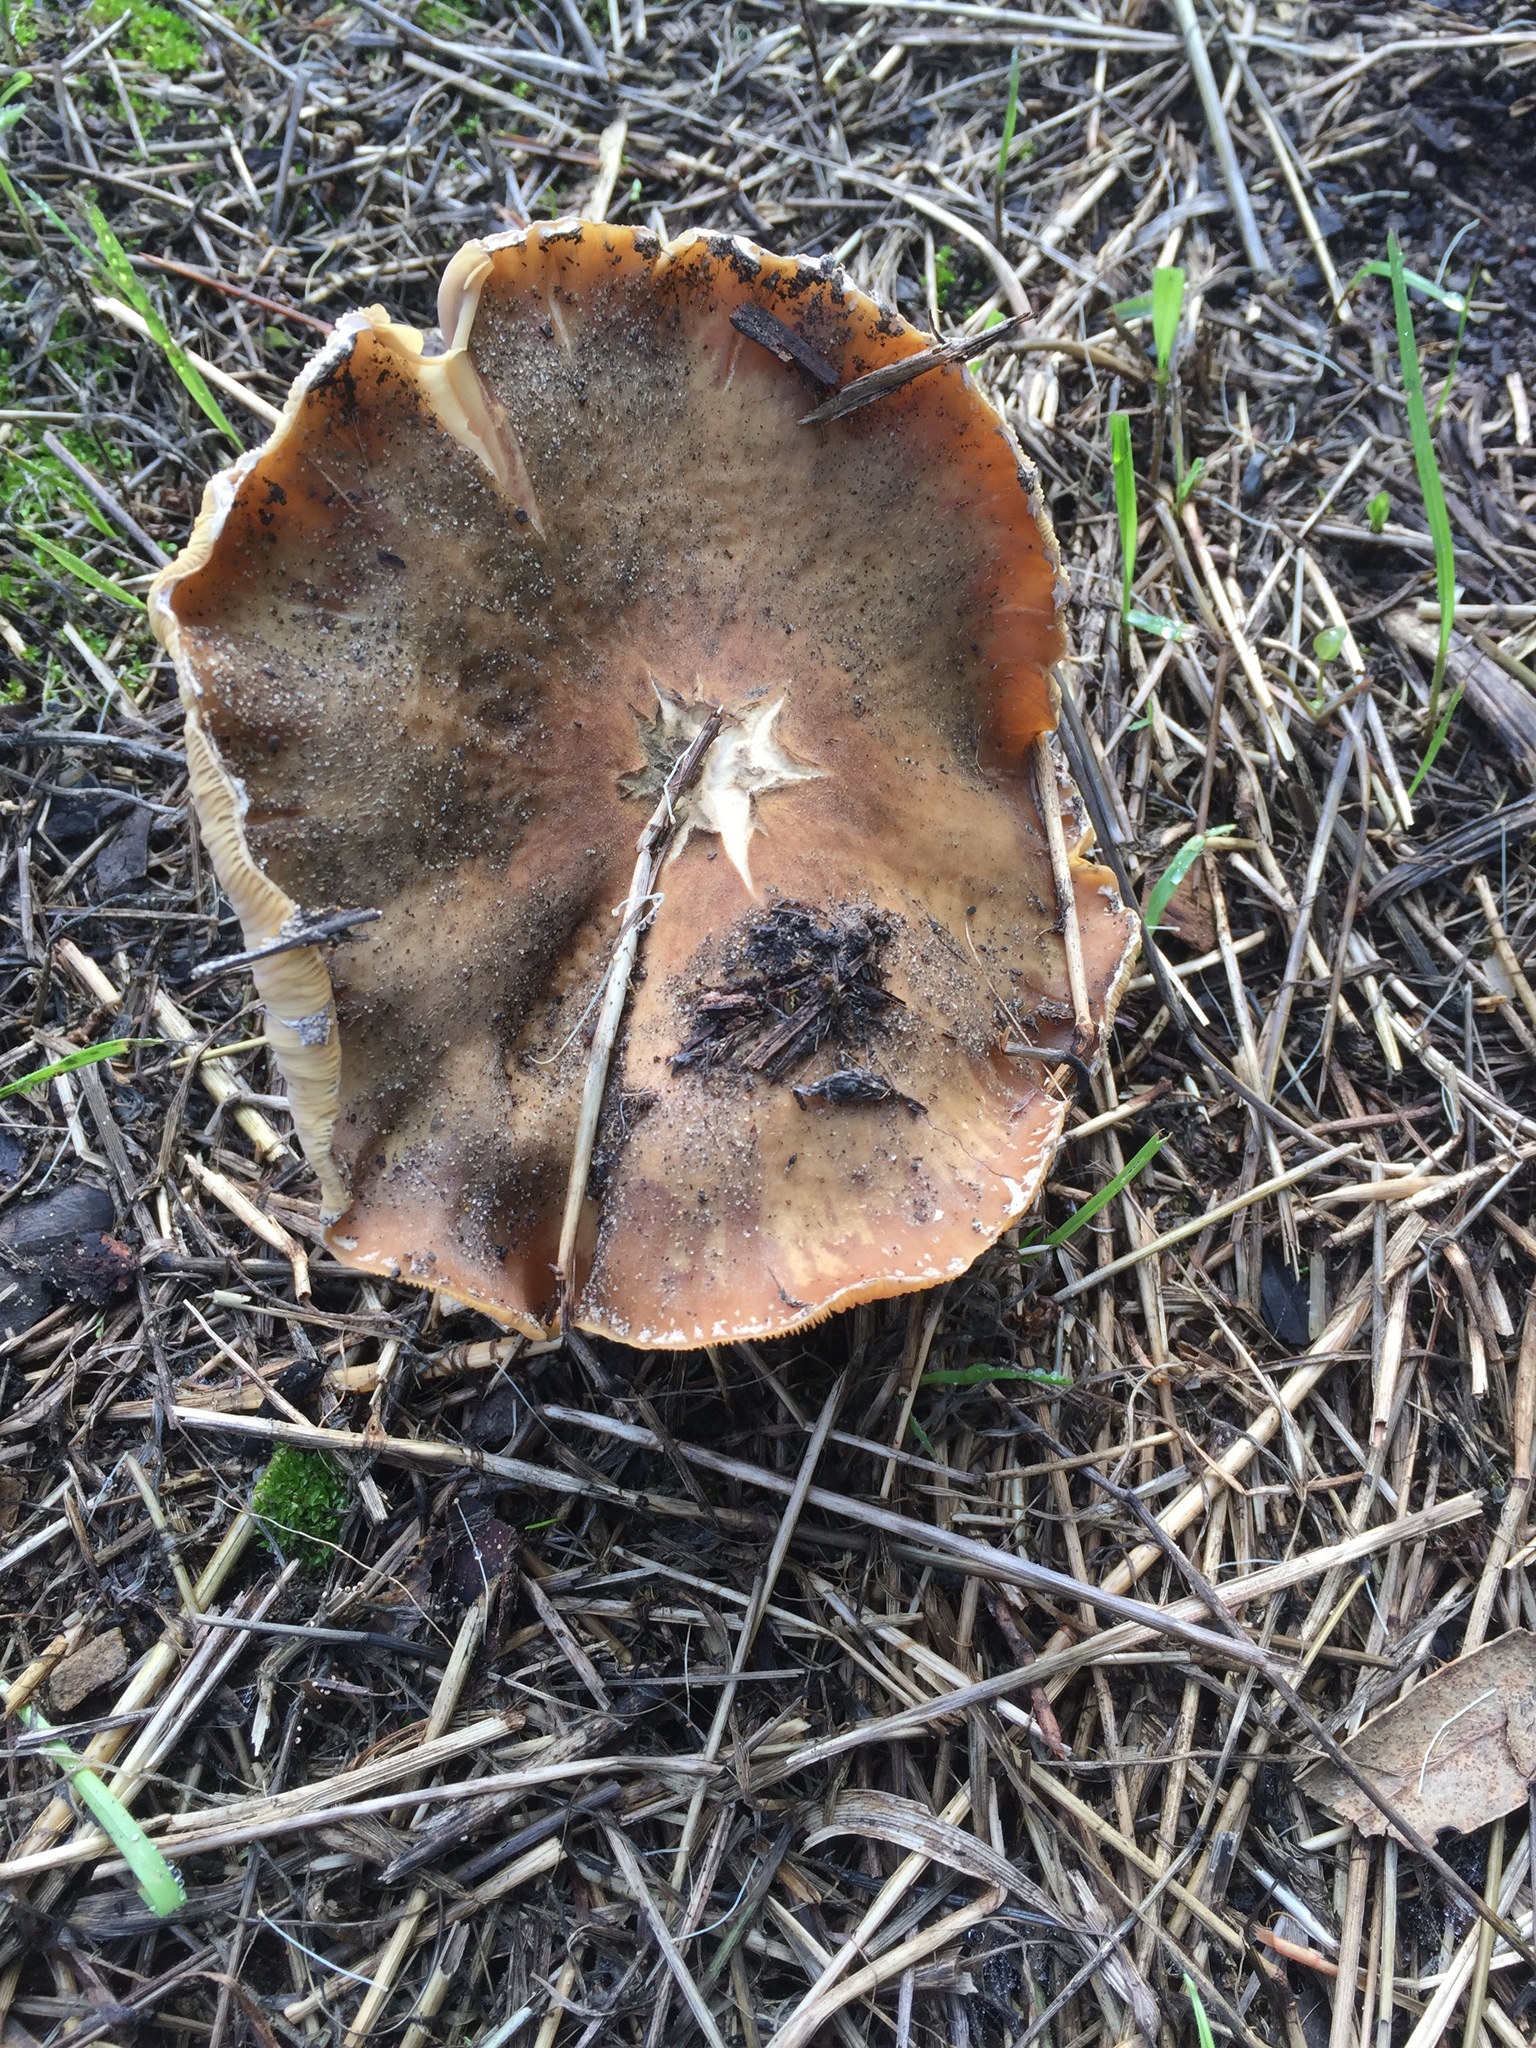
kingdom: Fungi
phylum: Basidiomycota
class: Agaricomycetes
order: Agaricales
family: Physalacriaceae
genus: Armillaria
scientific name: Armillaria mellea
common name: Honey fungus
